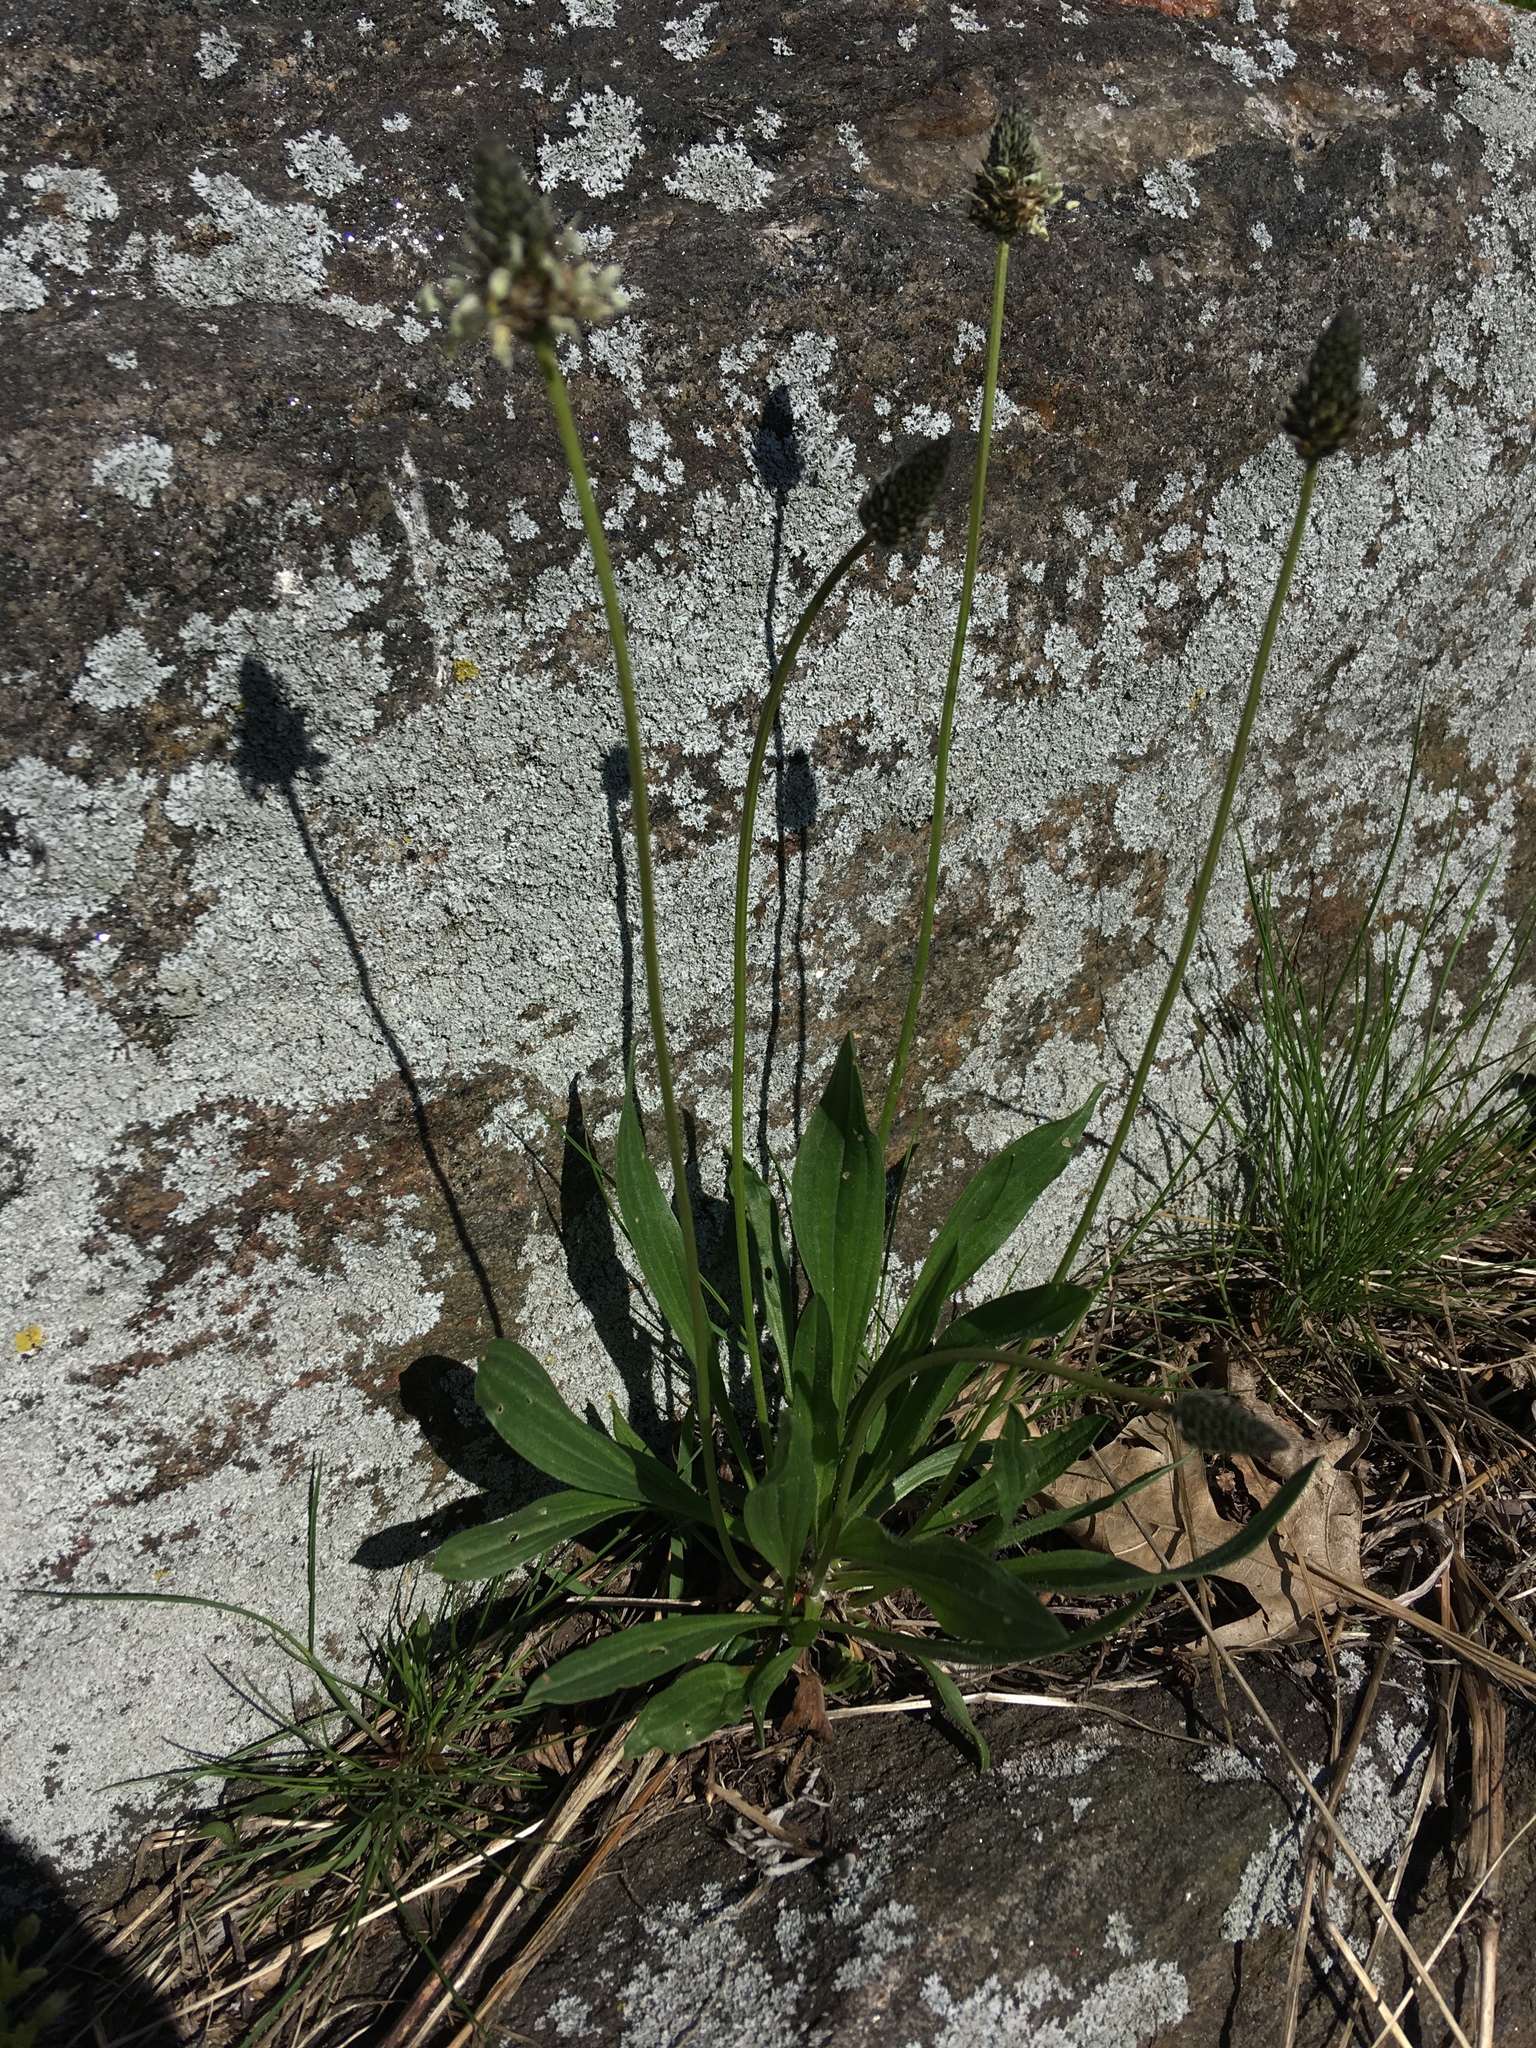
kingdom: Plantae
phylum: Tracheophyta
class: Magnoliopsida
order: Lamiales
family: Plantaginaceae
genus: Plantago
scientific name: Plantago lanceolata
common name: Ribwort plantain
